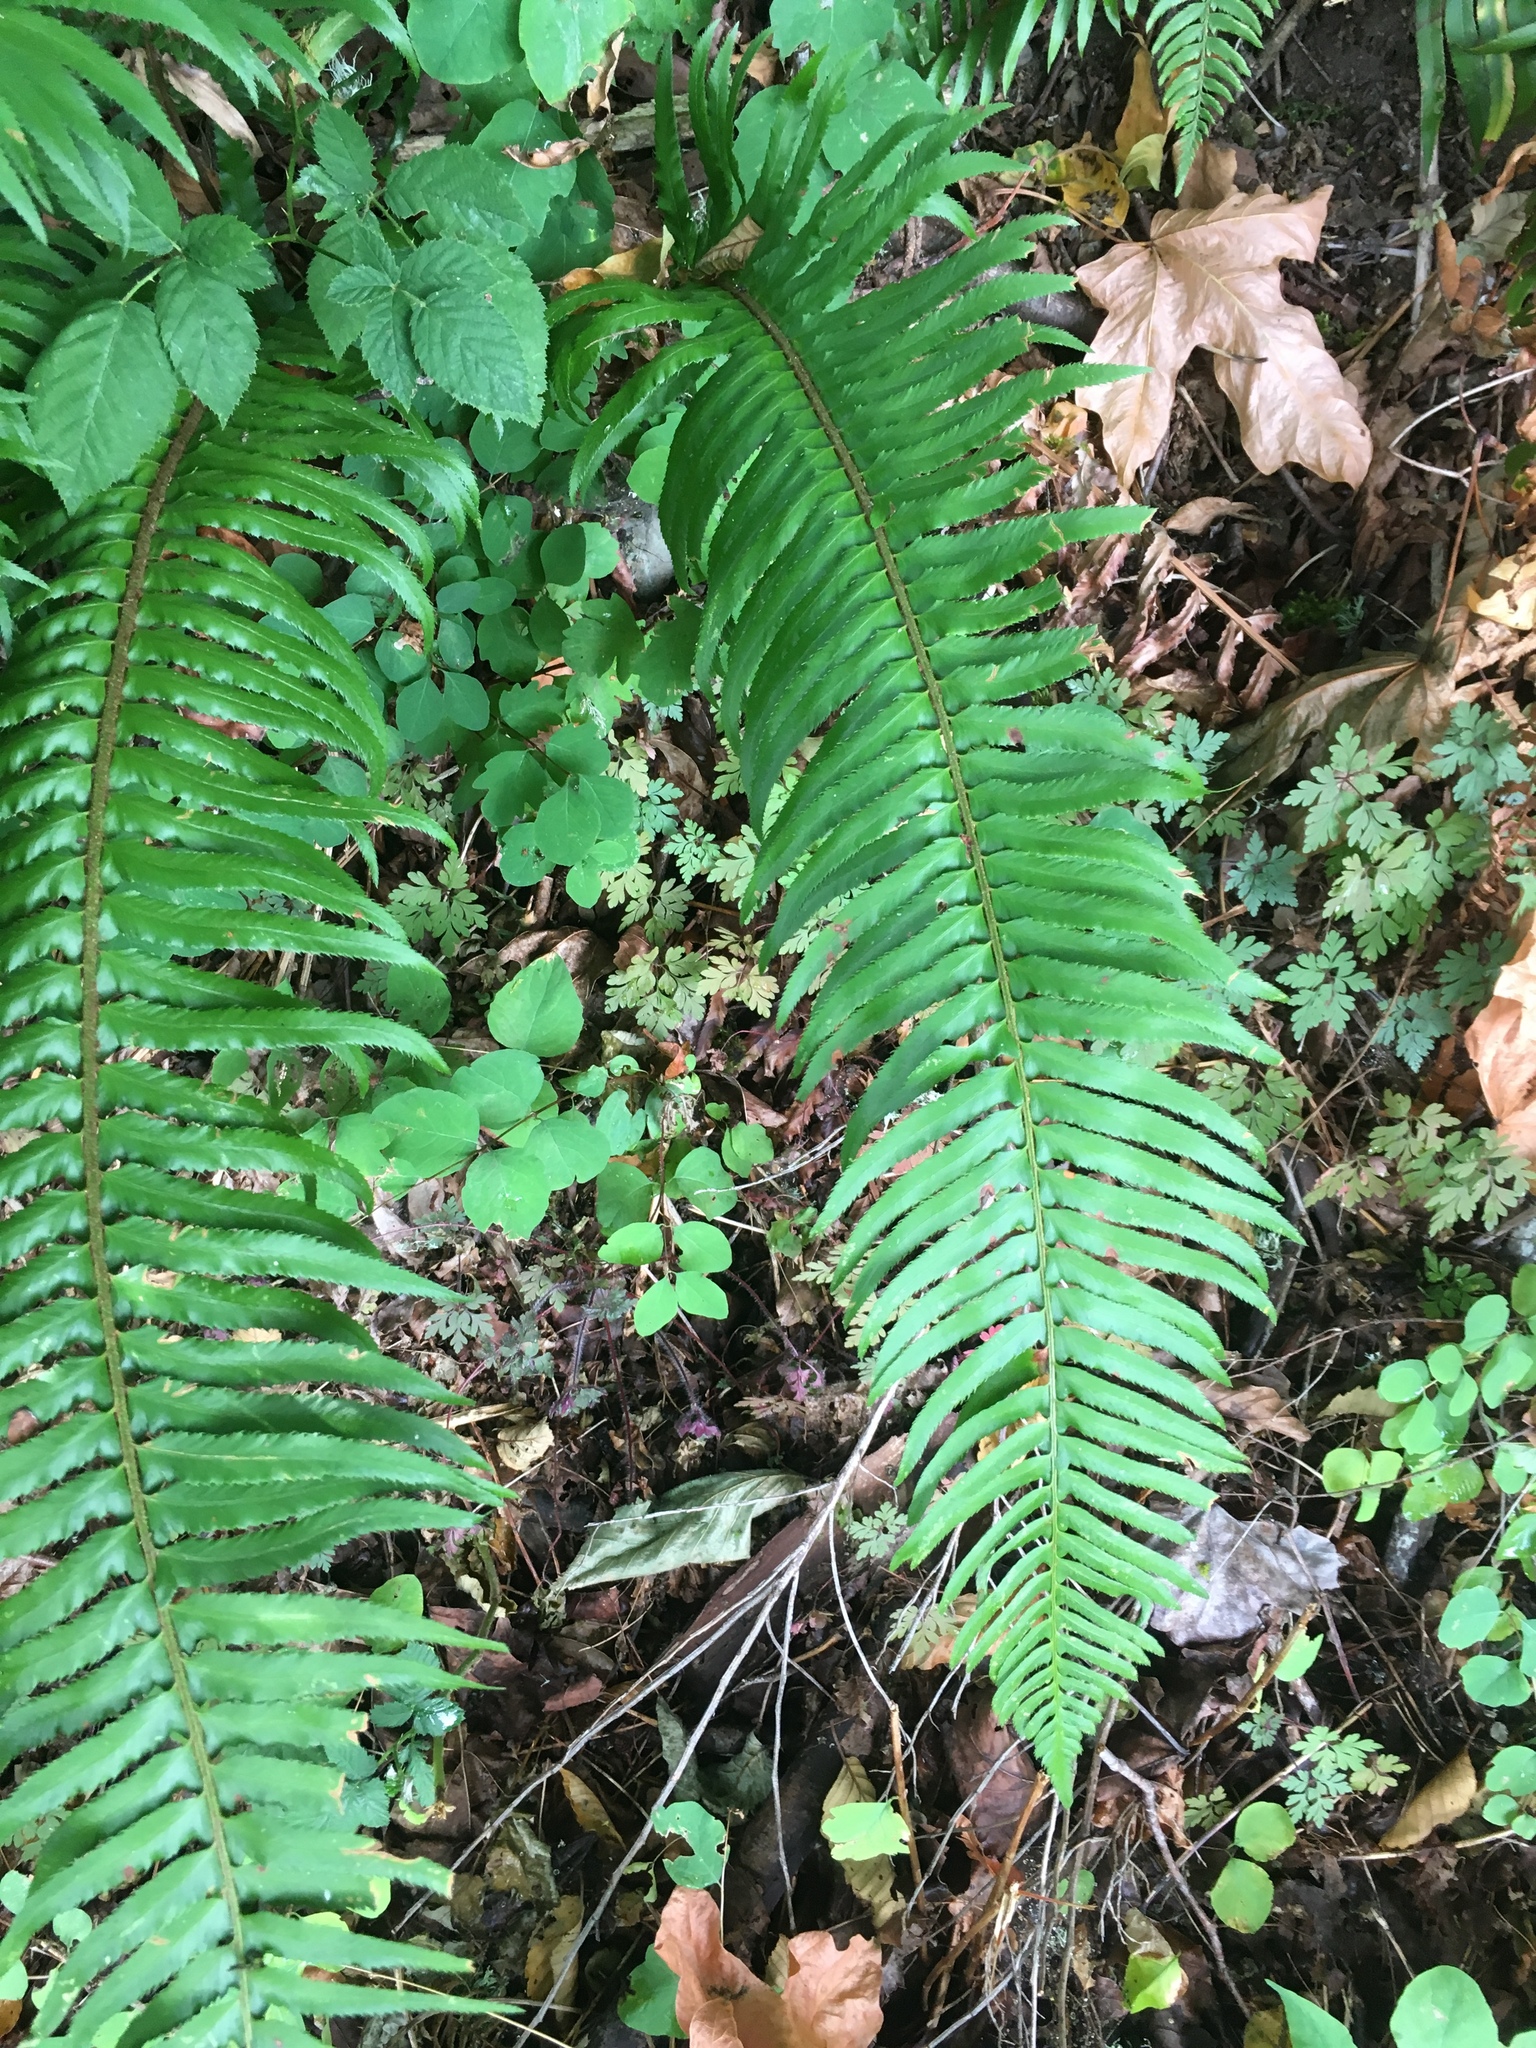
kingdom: Plantae
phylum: Tracheophyta
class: Polypodiopsida
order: Polypodiales
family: Dryopteridaceae
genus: Polystichum
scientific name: Polystichum munitum
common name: Western sword-fern
